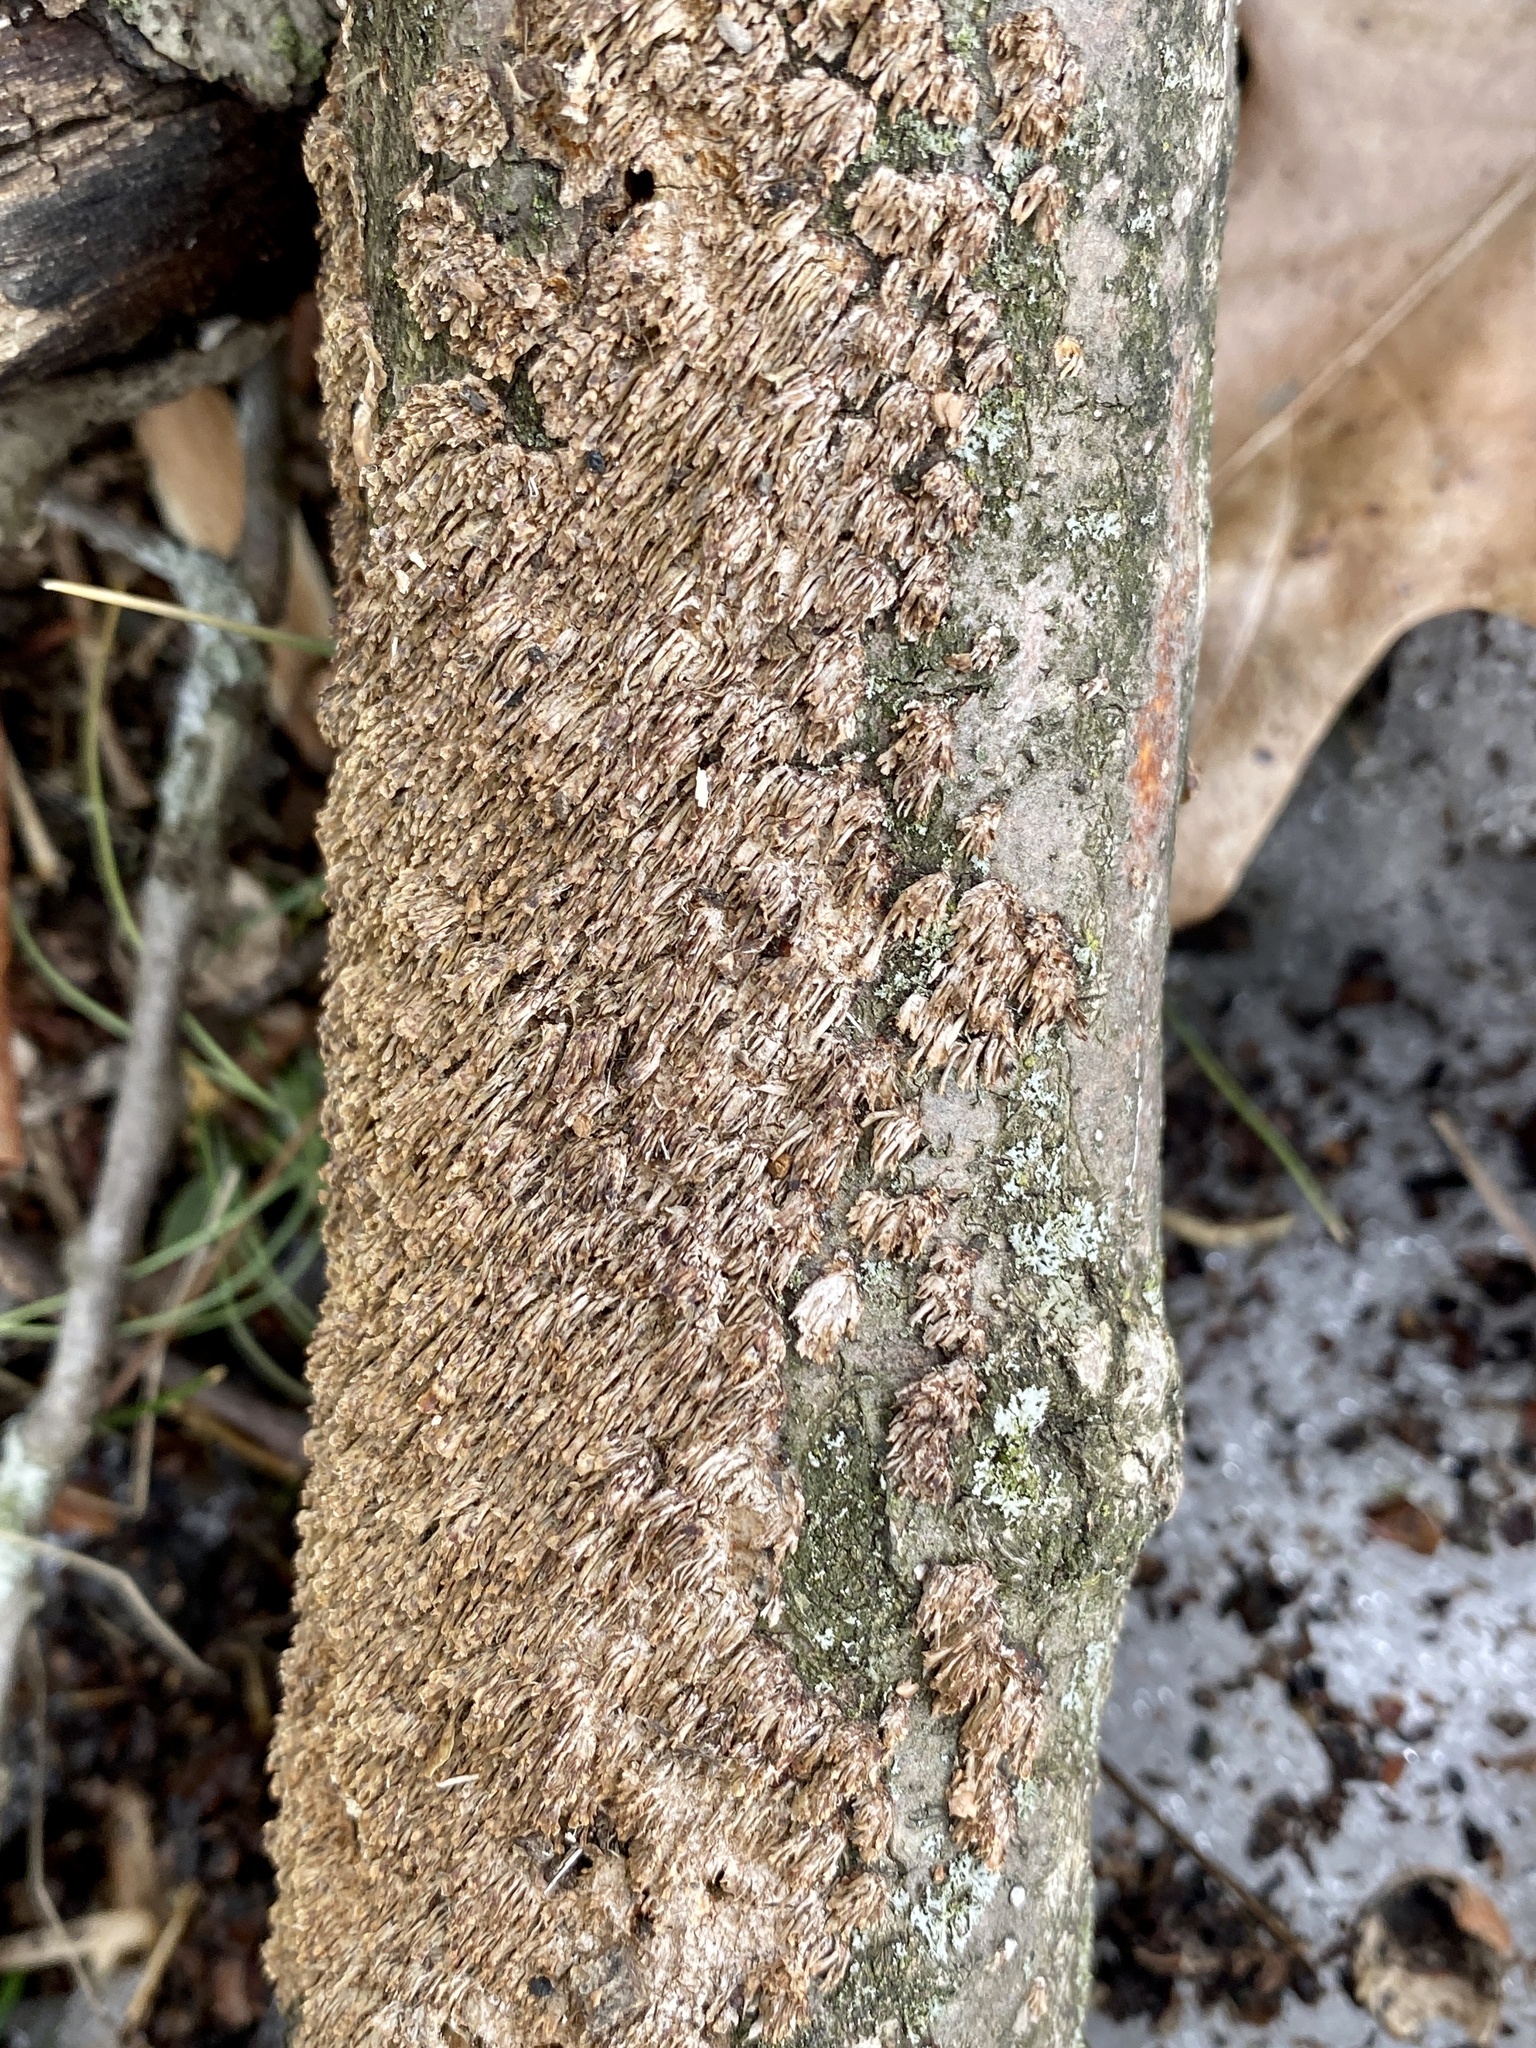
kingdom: Fungi
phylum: Basidiomycota
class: Agaricomycetes
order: Hymenochaetales
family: Hymenochaetaceae
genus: Hydnoporia
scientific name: Hydnoporia olivacea
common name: Brown-toothed crust fungus
